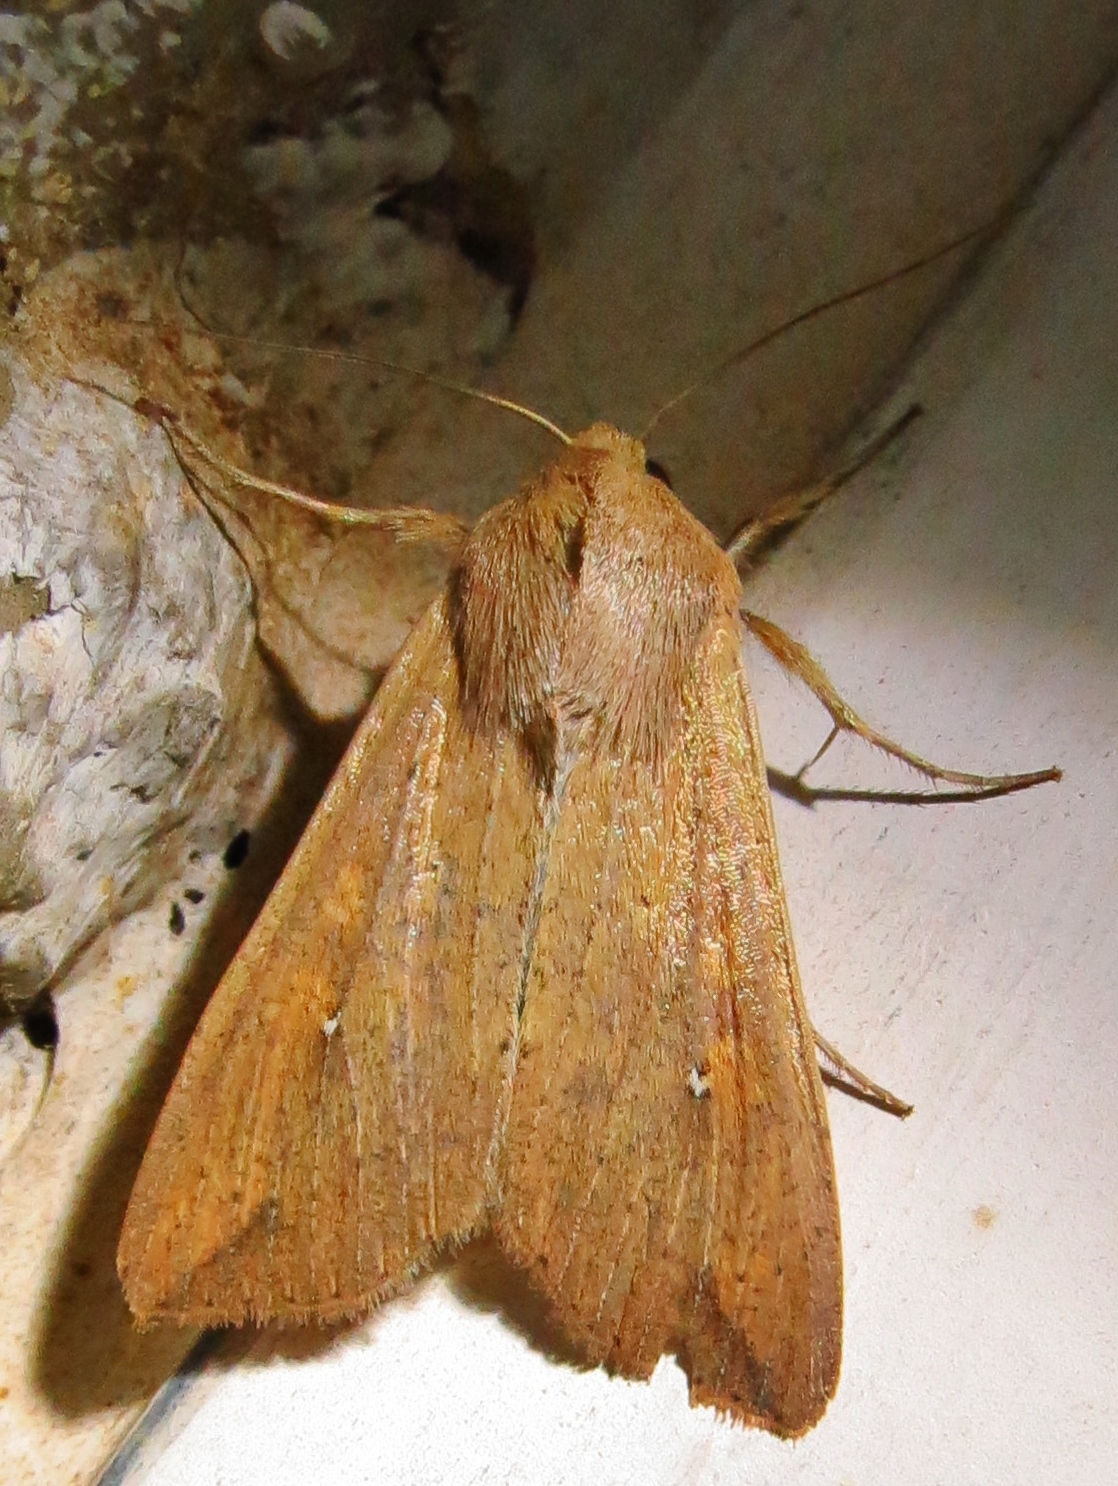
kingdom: Animalia
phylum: Arthropoda
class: Insecta
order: Lepidoptera
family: Noctuidae
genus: Mythimna
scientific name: Mythimna unipuncta
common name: White-speck
